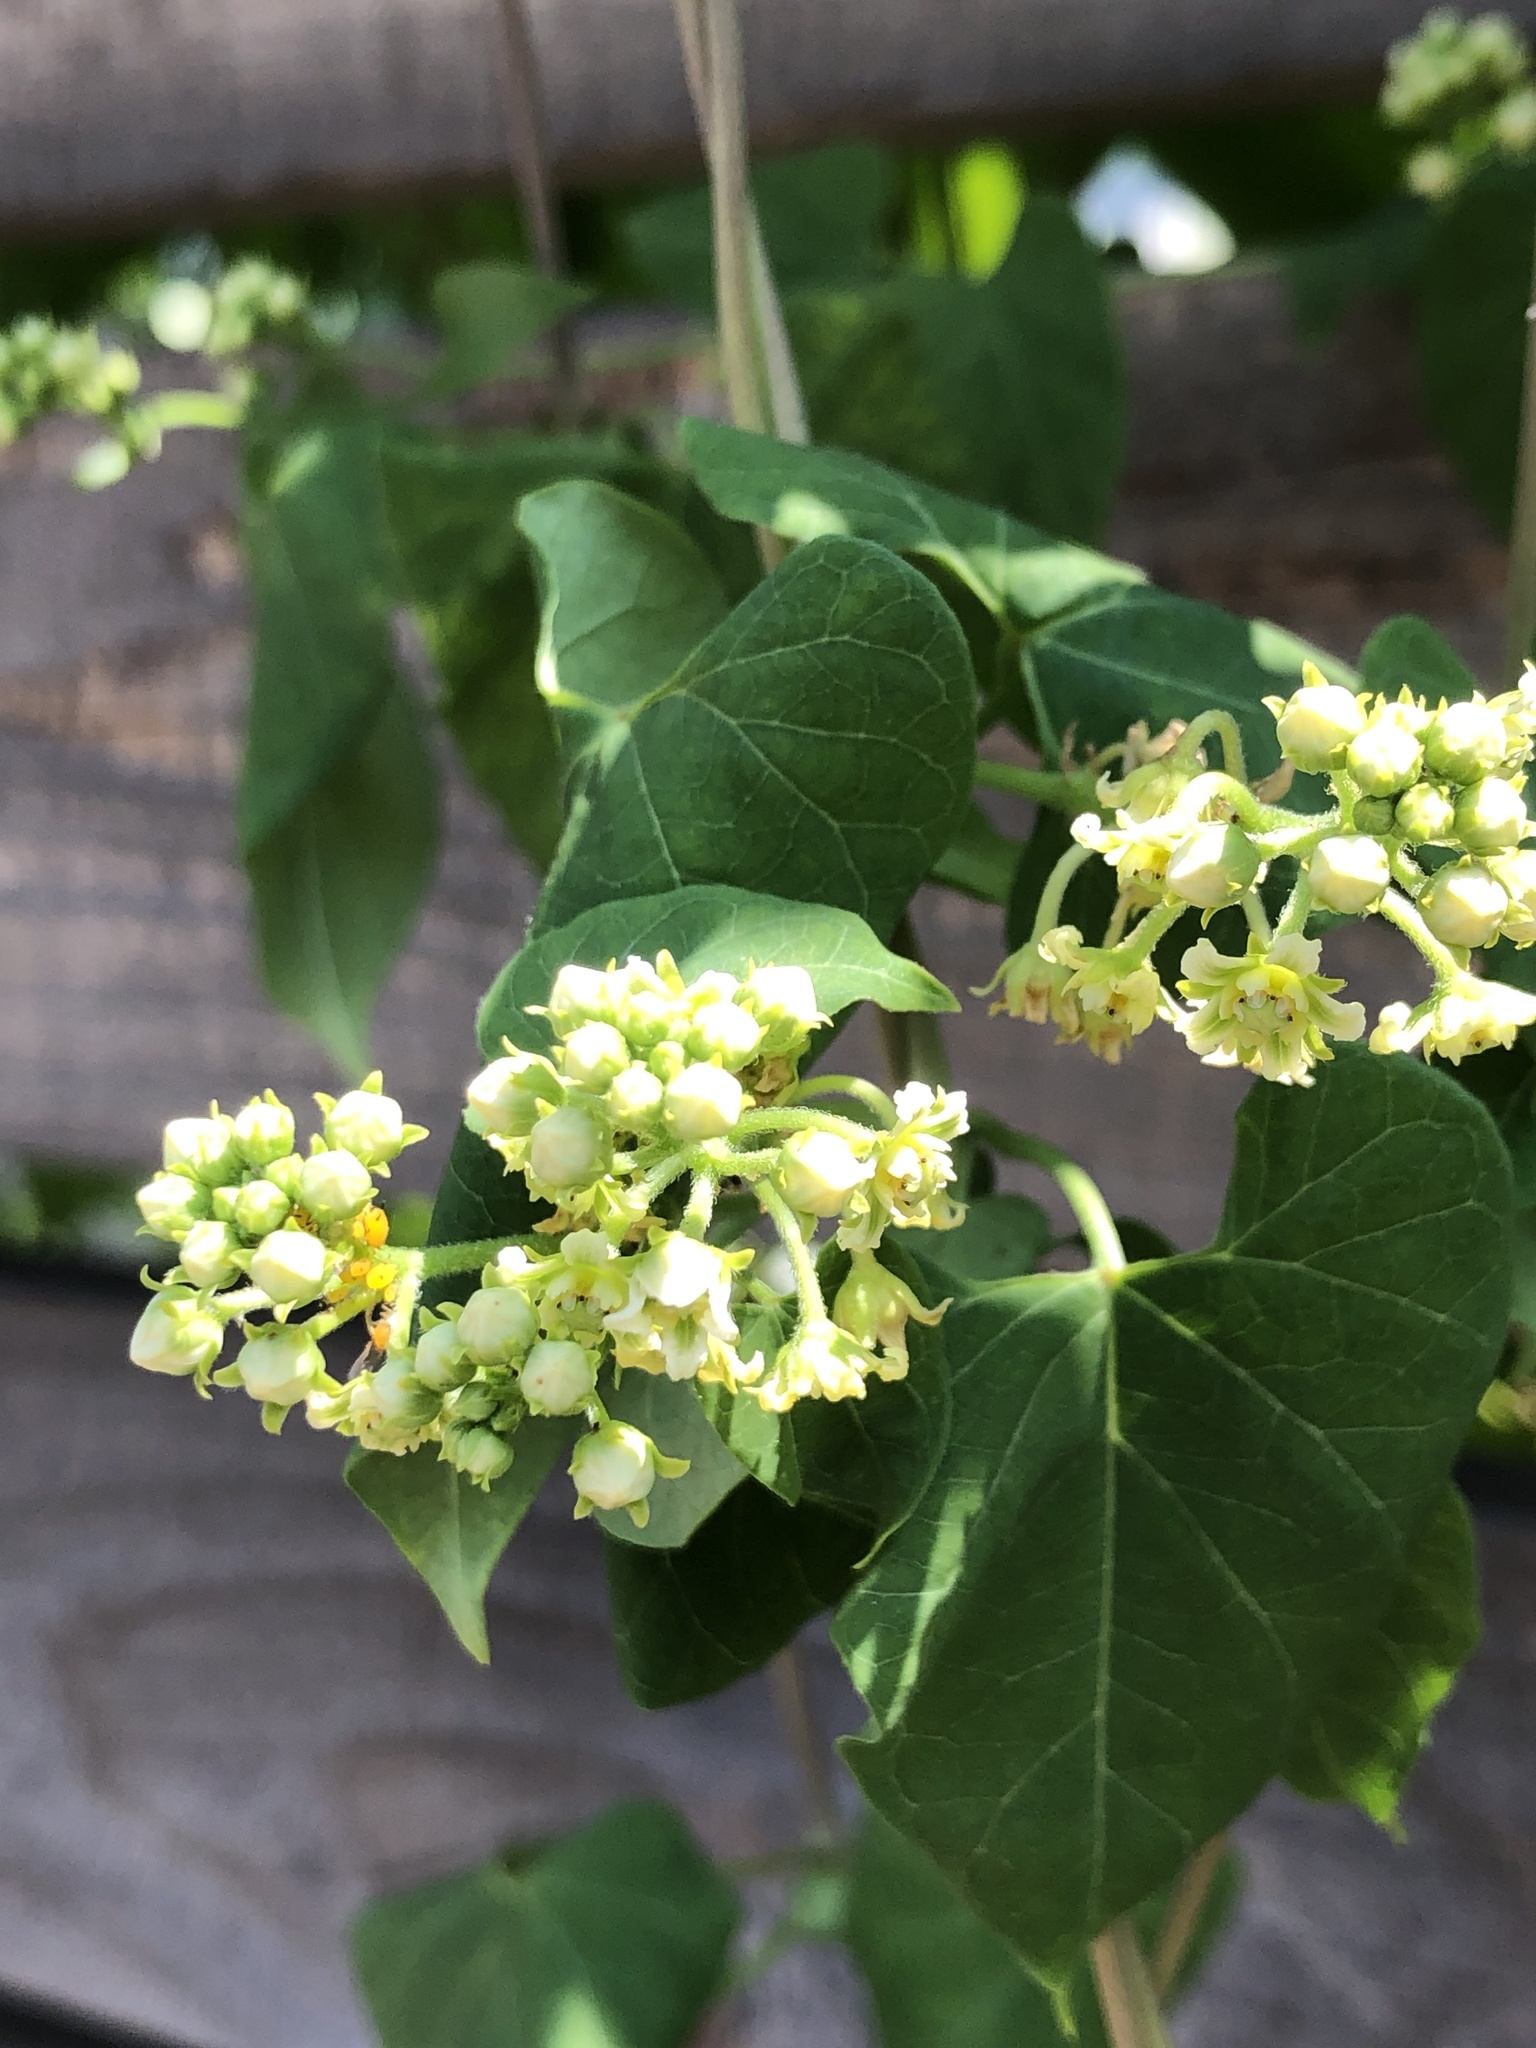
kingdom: Plantae
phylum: Tracheophyta
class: Magnoliopsida
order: Gentianales
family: Apocynaceae
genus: Cynanchum
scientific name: Cynanchum racemosum
